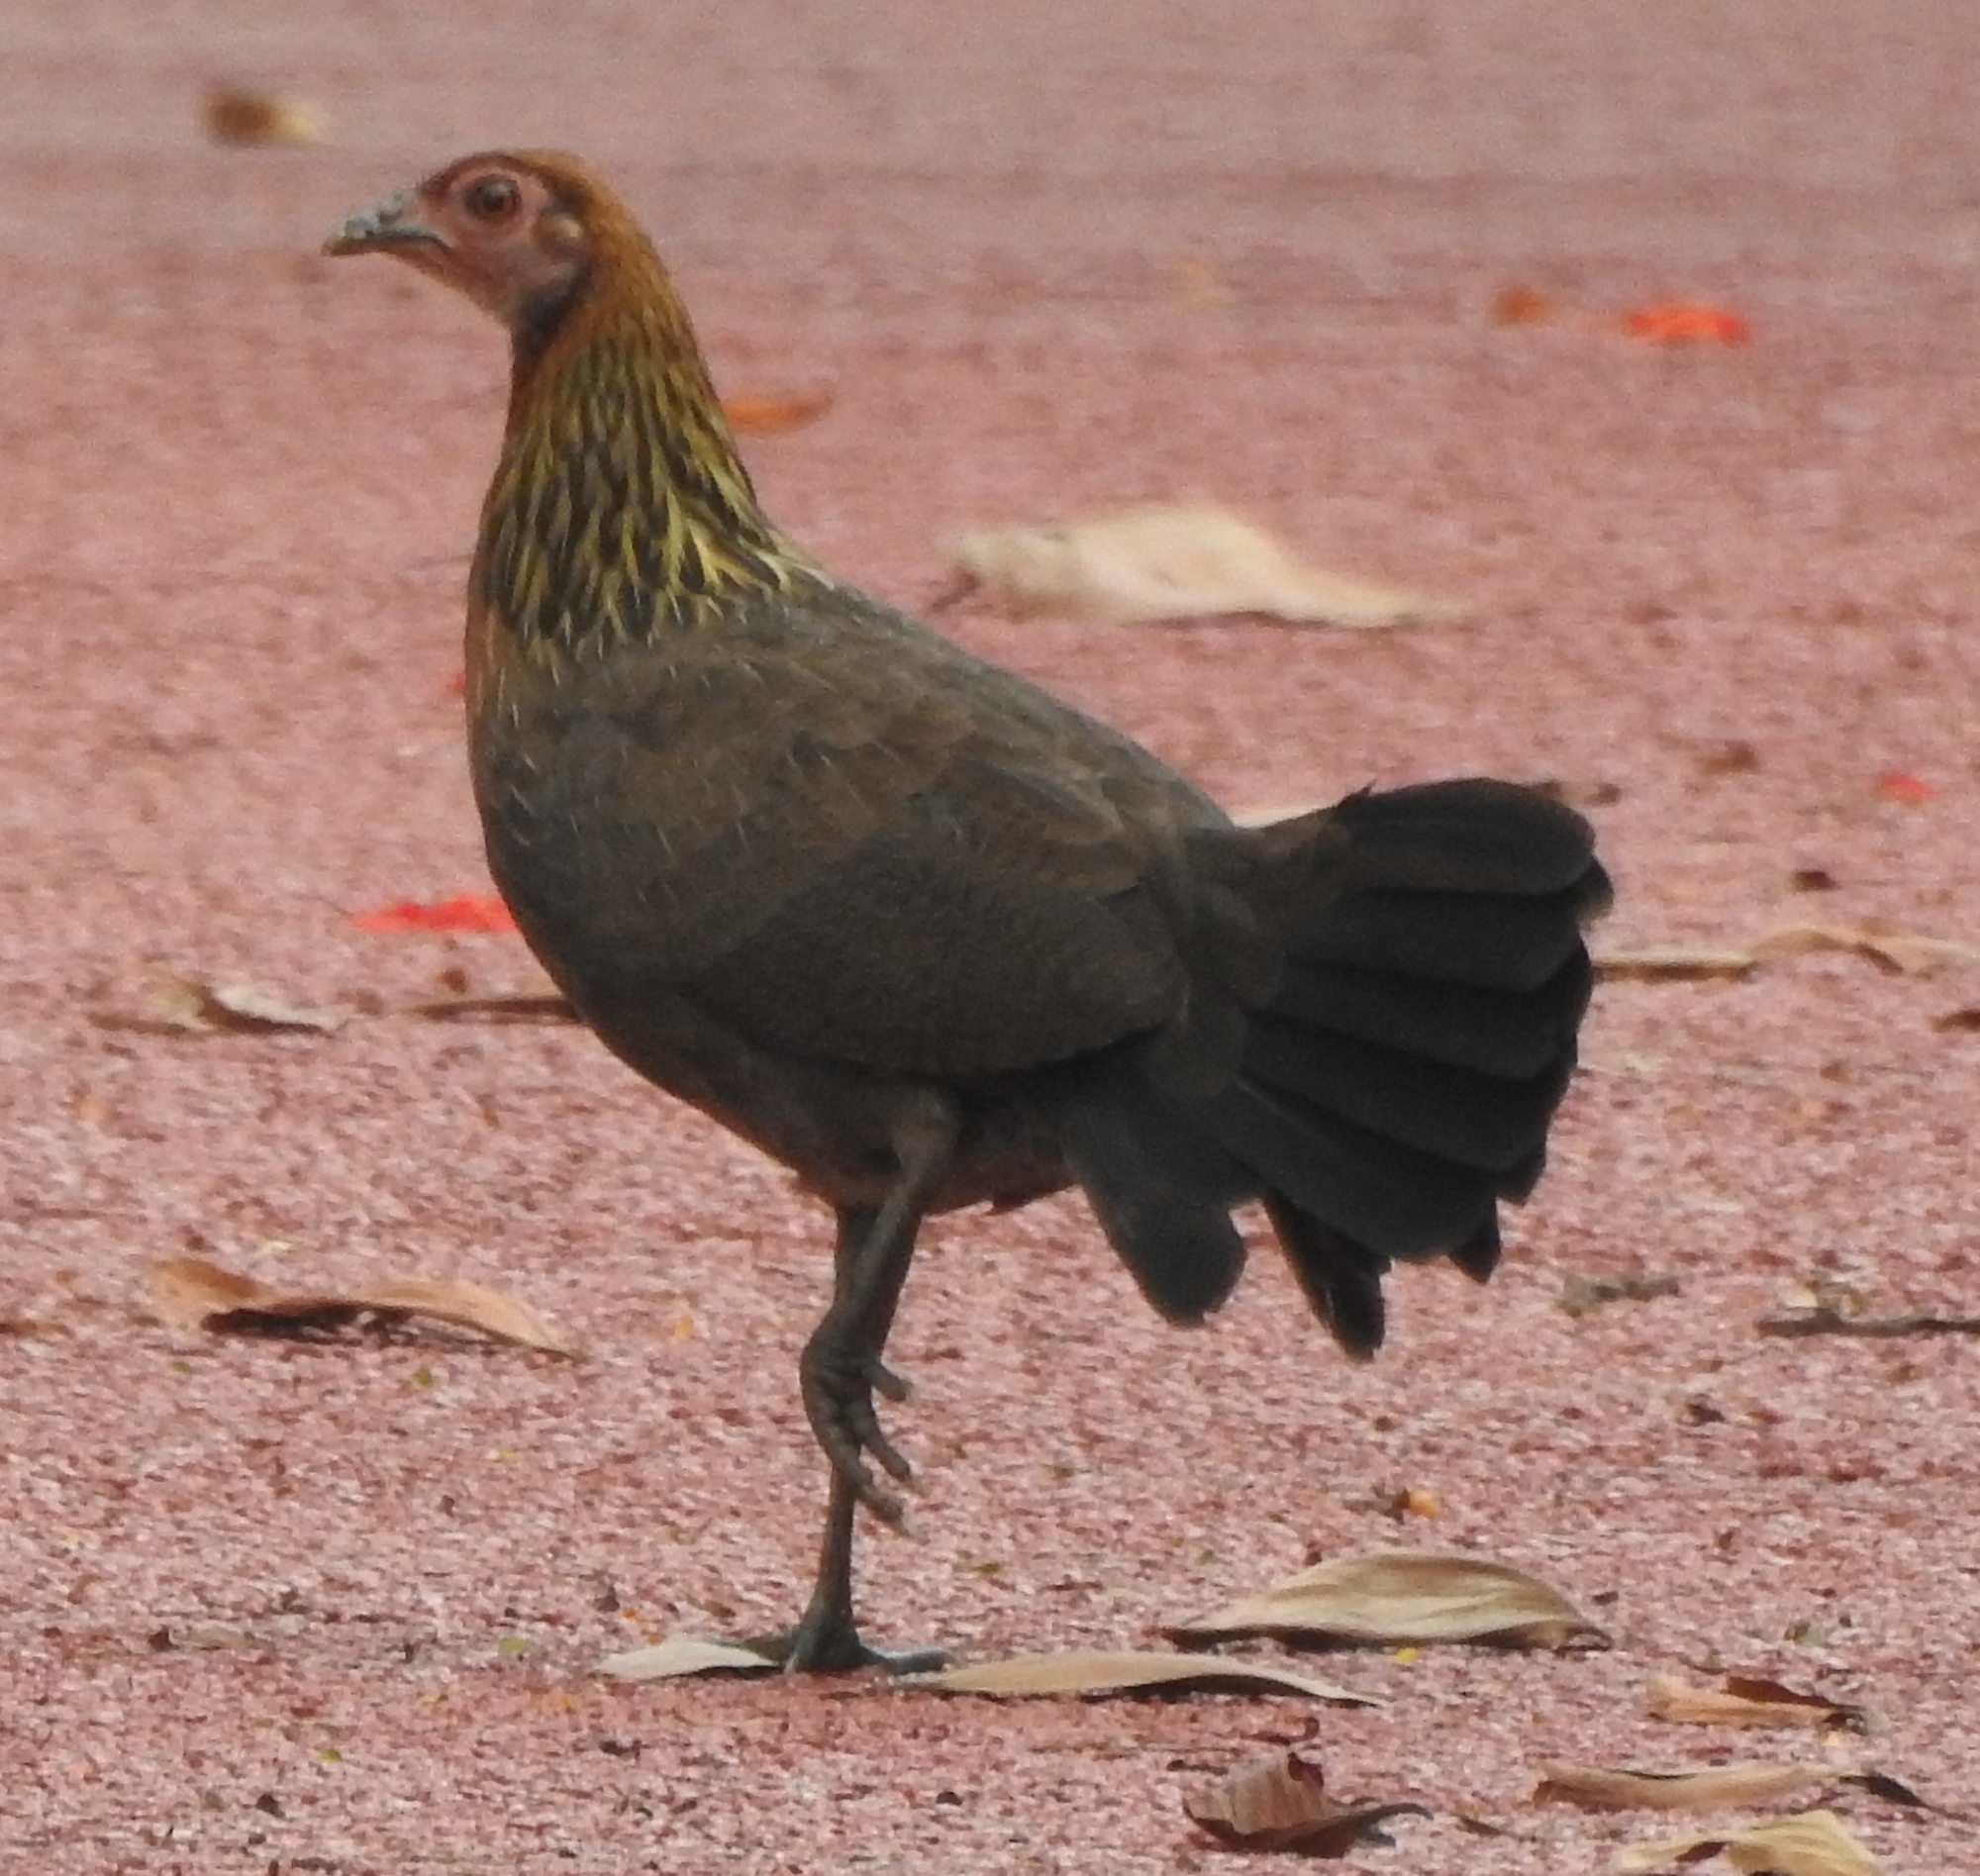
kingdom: Animalia
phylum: Chordata
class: Aves
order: Galliformes
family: Phasianidae
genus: Gallus
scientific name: Gallus gallus
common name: Red junglefowl
